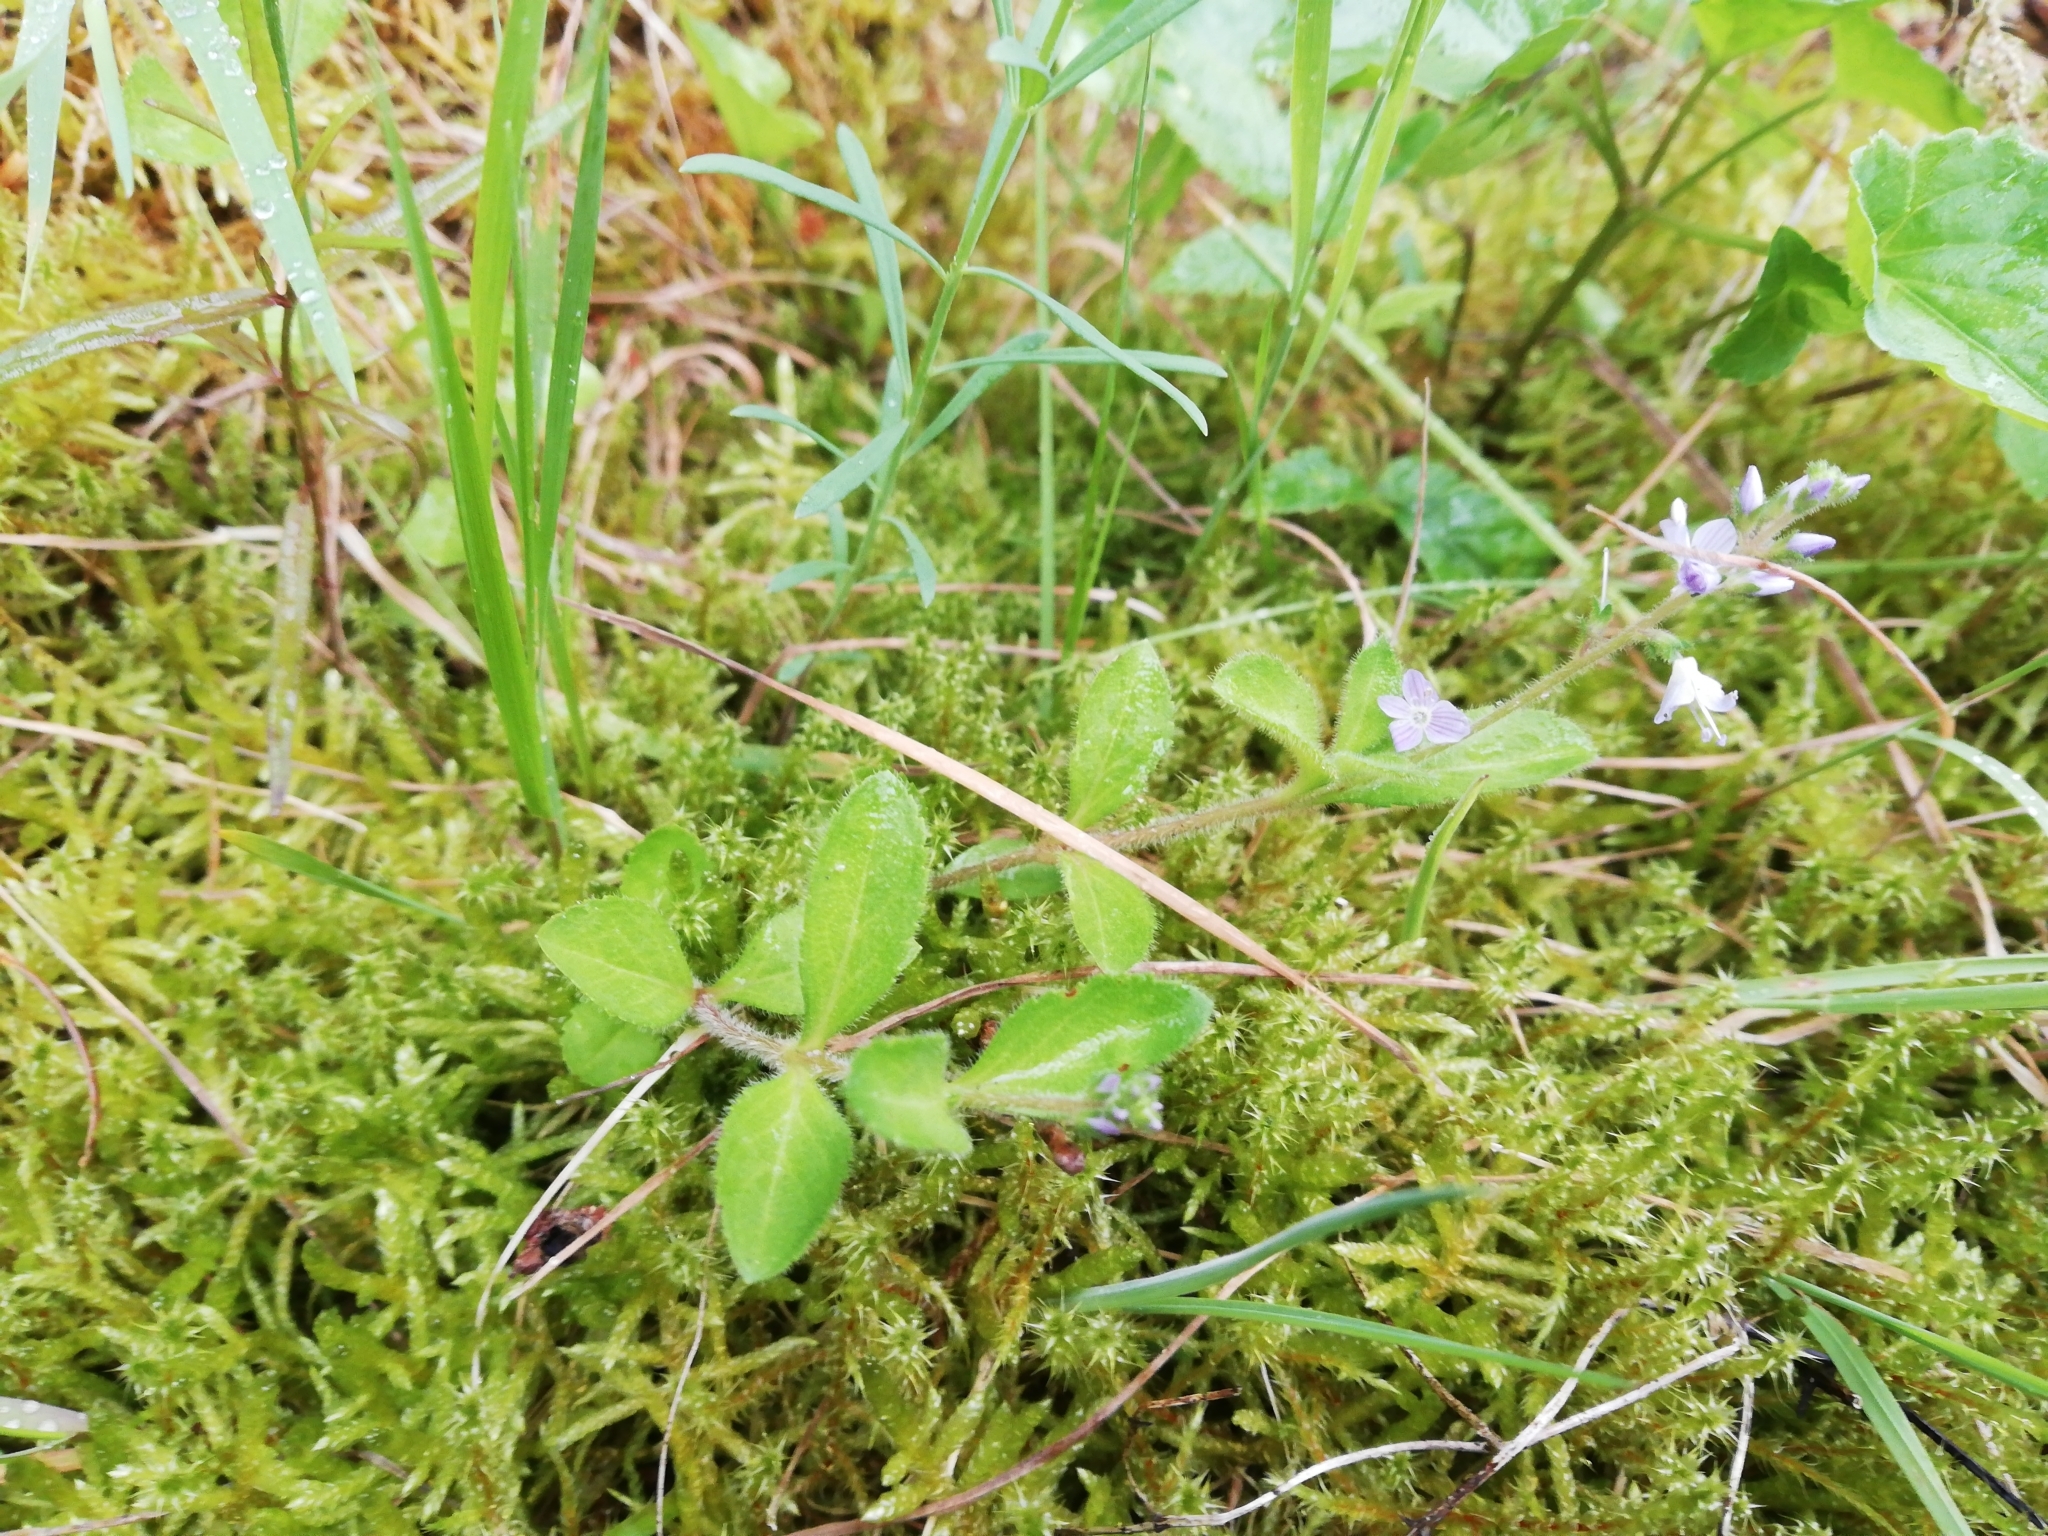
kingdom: Plantae
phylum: Tracheophyta
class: Magnoliopsida
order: Lamiales
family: Plantaginaceae
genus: Veronica
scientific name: Veronica officinalis
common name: Common speedwell
